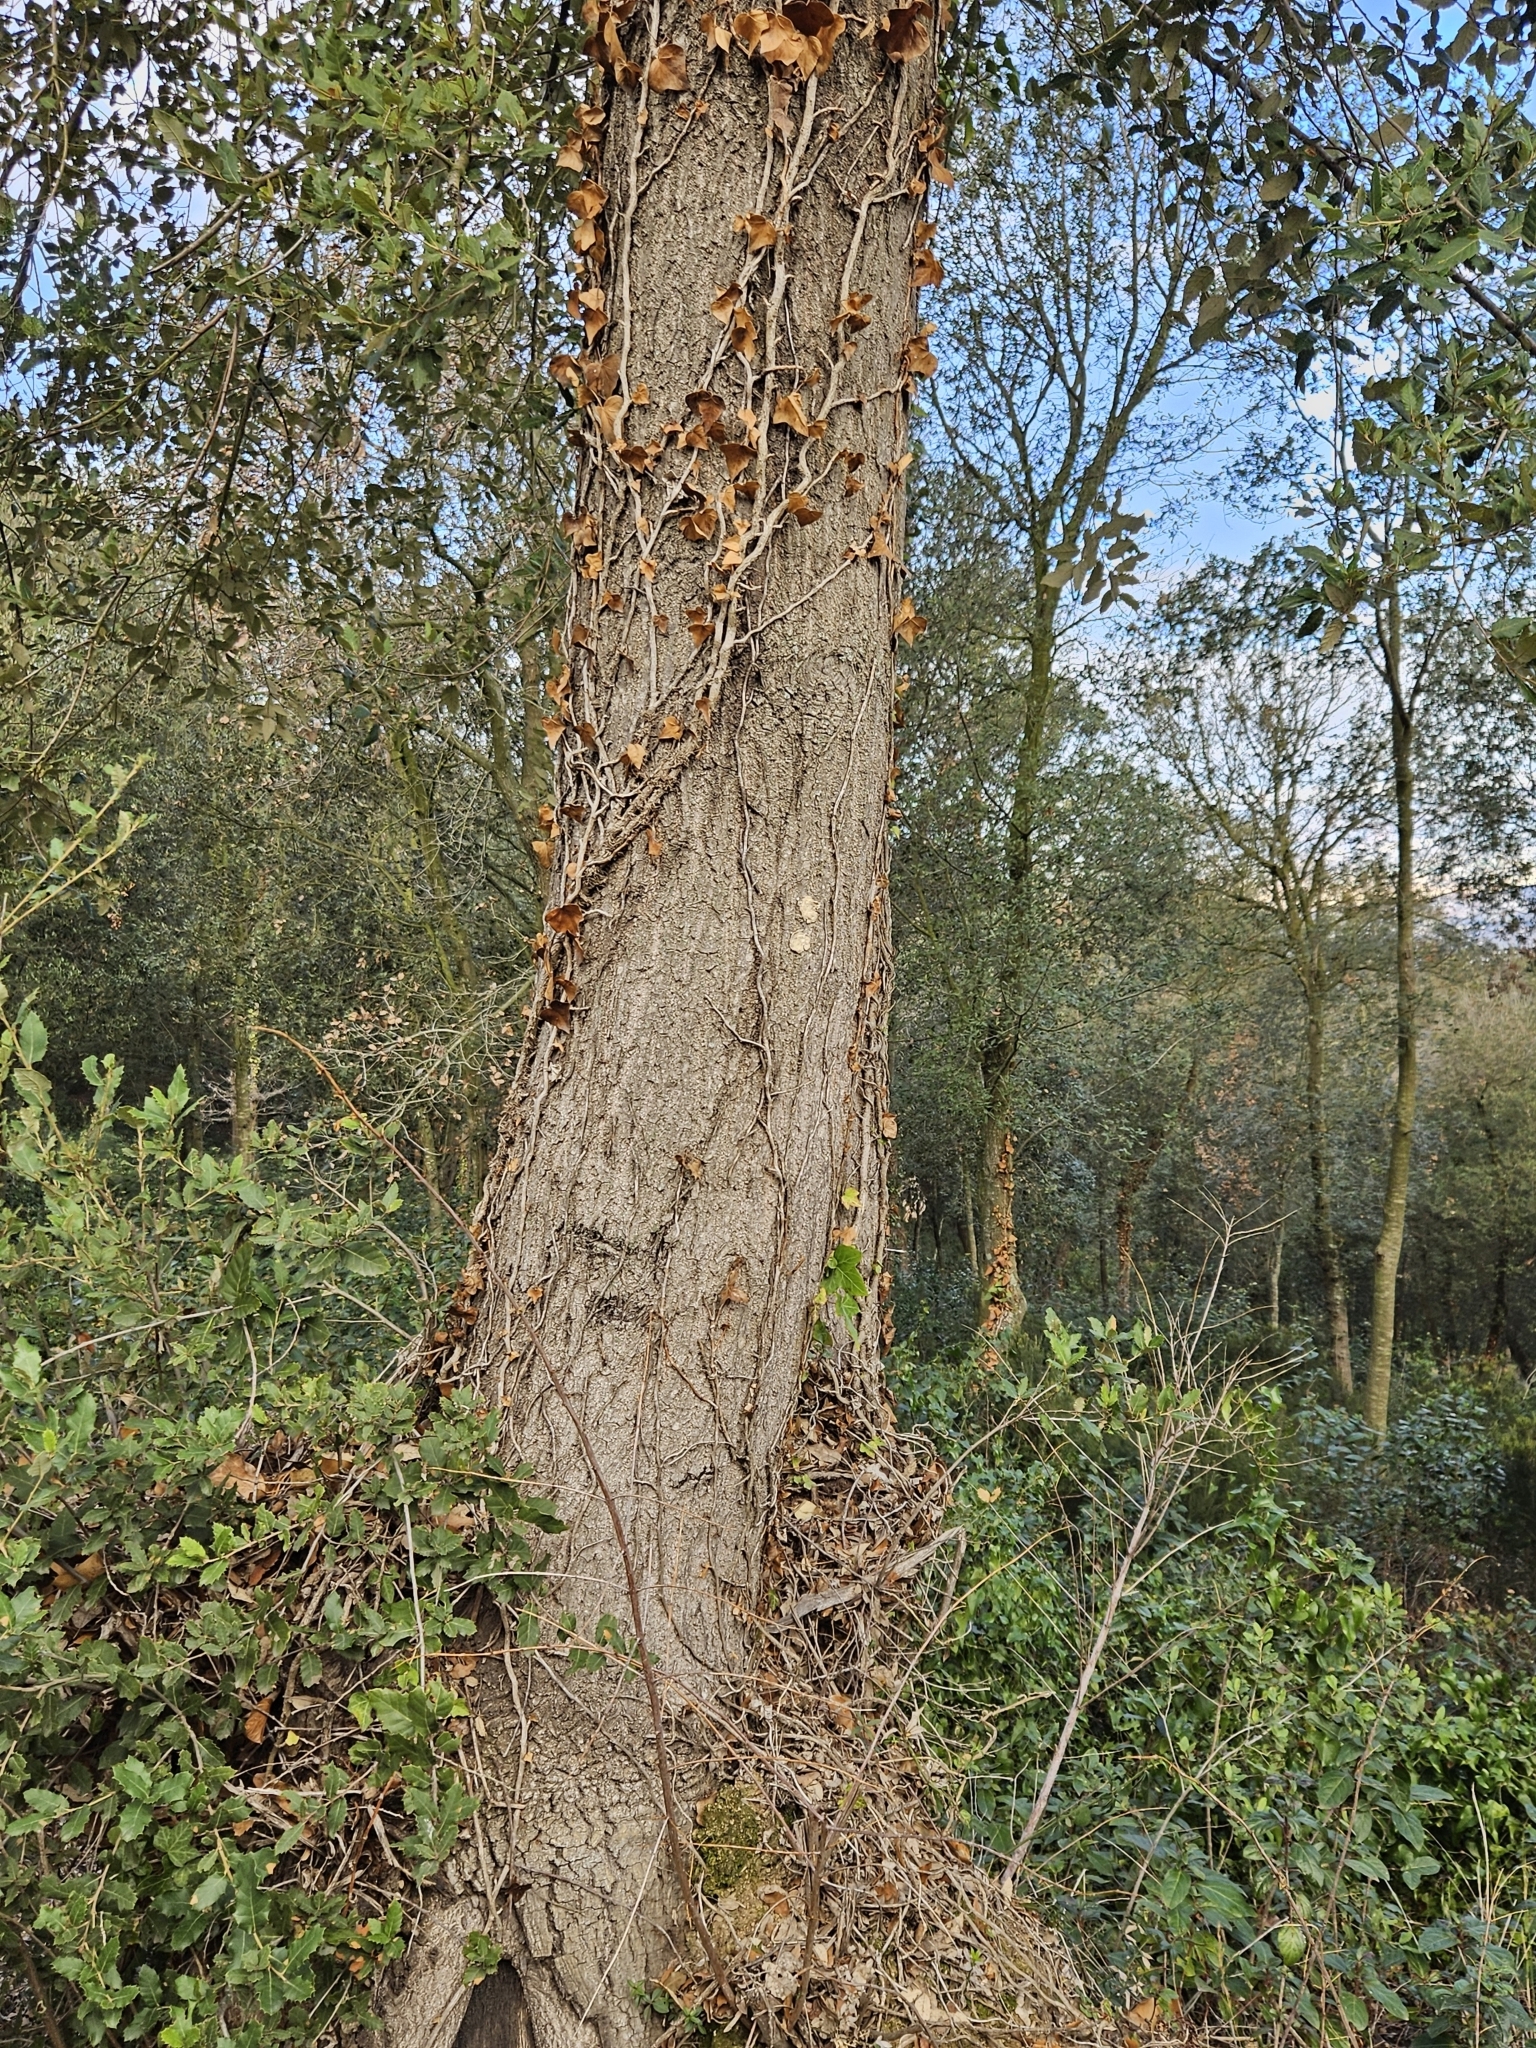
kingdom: Plantae
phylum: Tracheophyta
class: Magnoliopsida
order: Fagales
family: Fagaceae
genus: Quercus
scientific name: Quercus morisii
